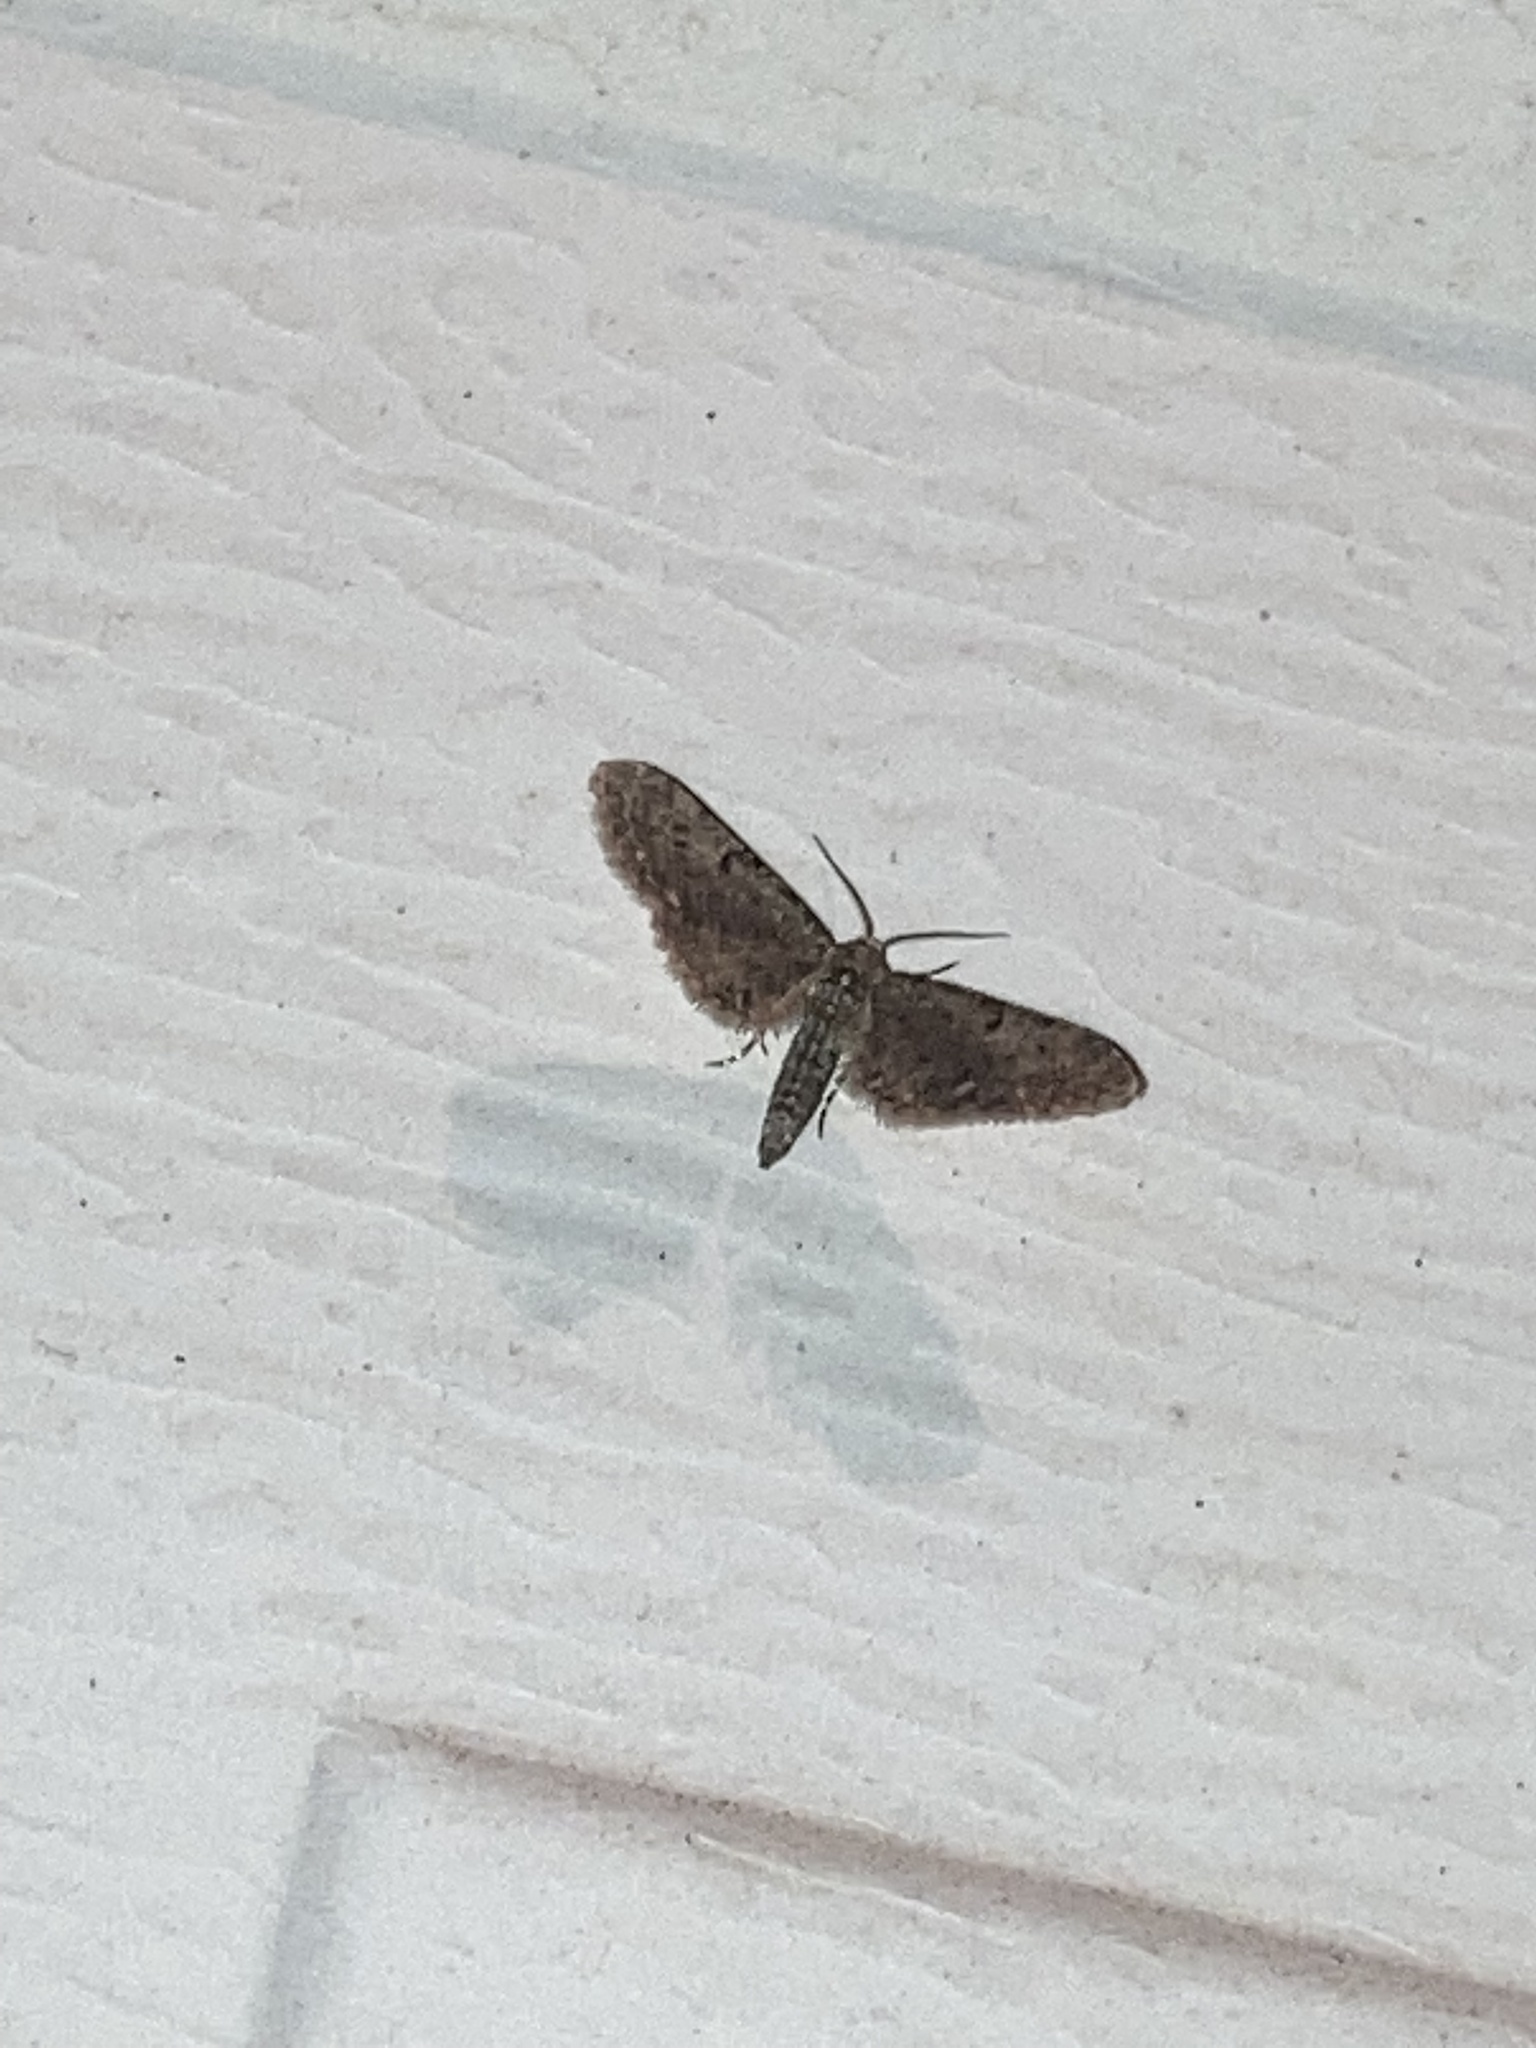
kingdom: Animalia
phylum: Arthropoda
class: Insecta
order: Lepidoptera
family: Geometridae
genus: Eupithecia
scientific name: Eupithecia miserulata
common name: Common eupithecia
